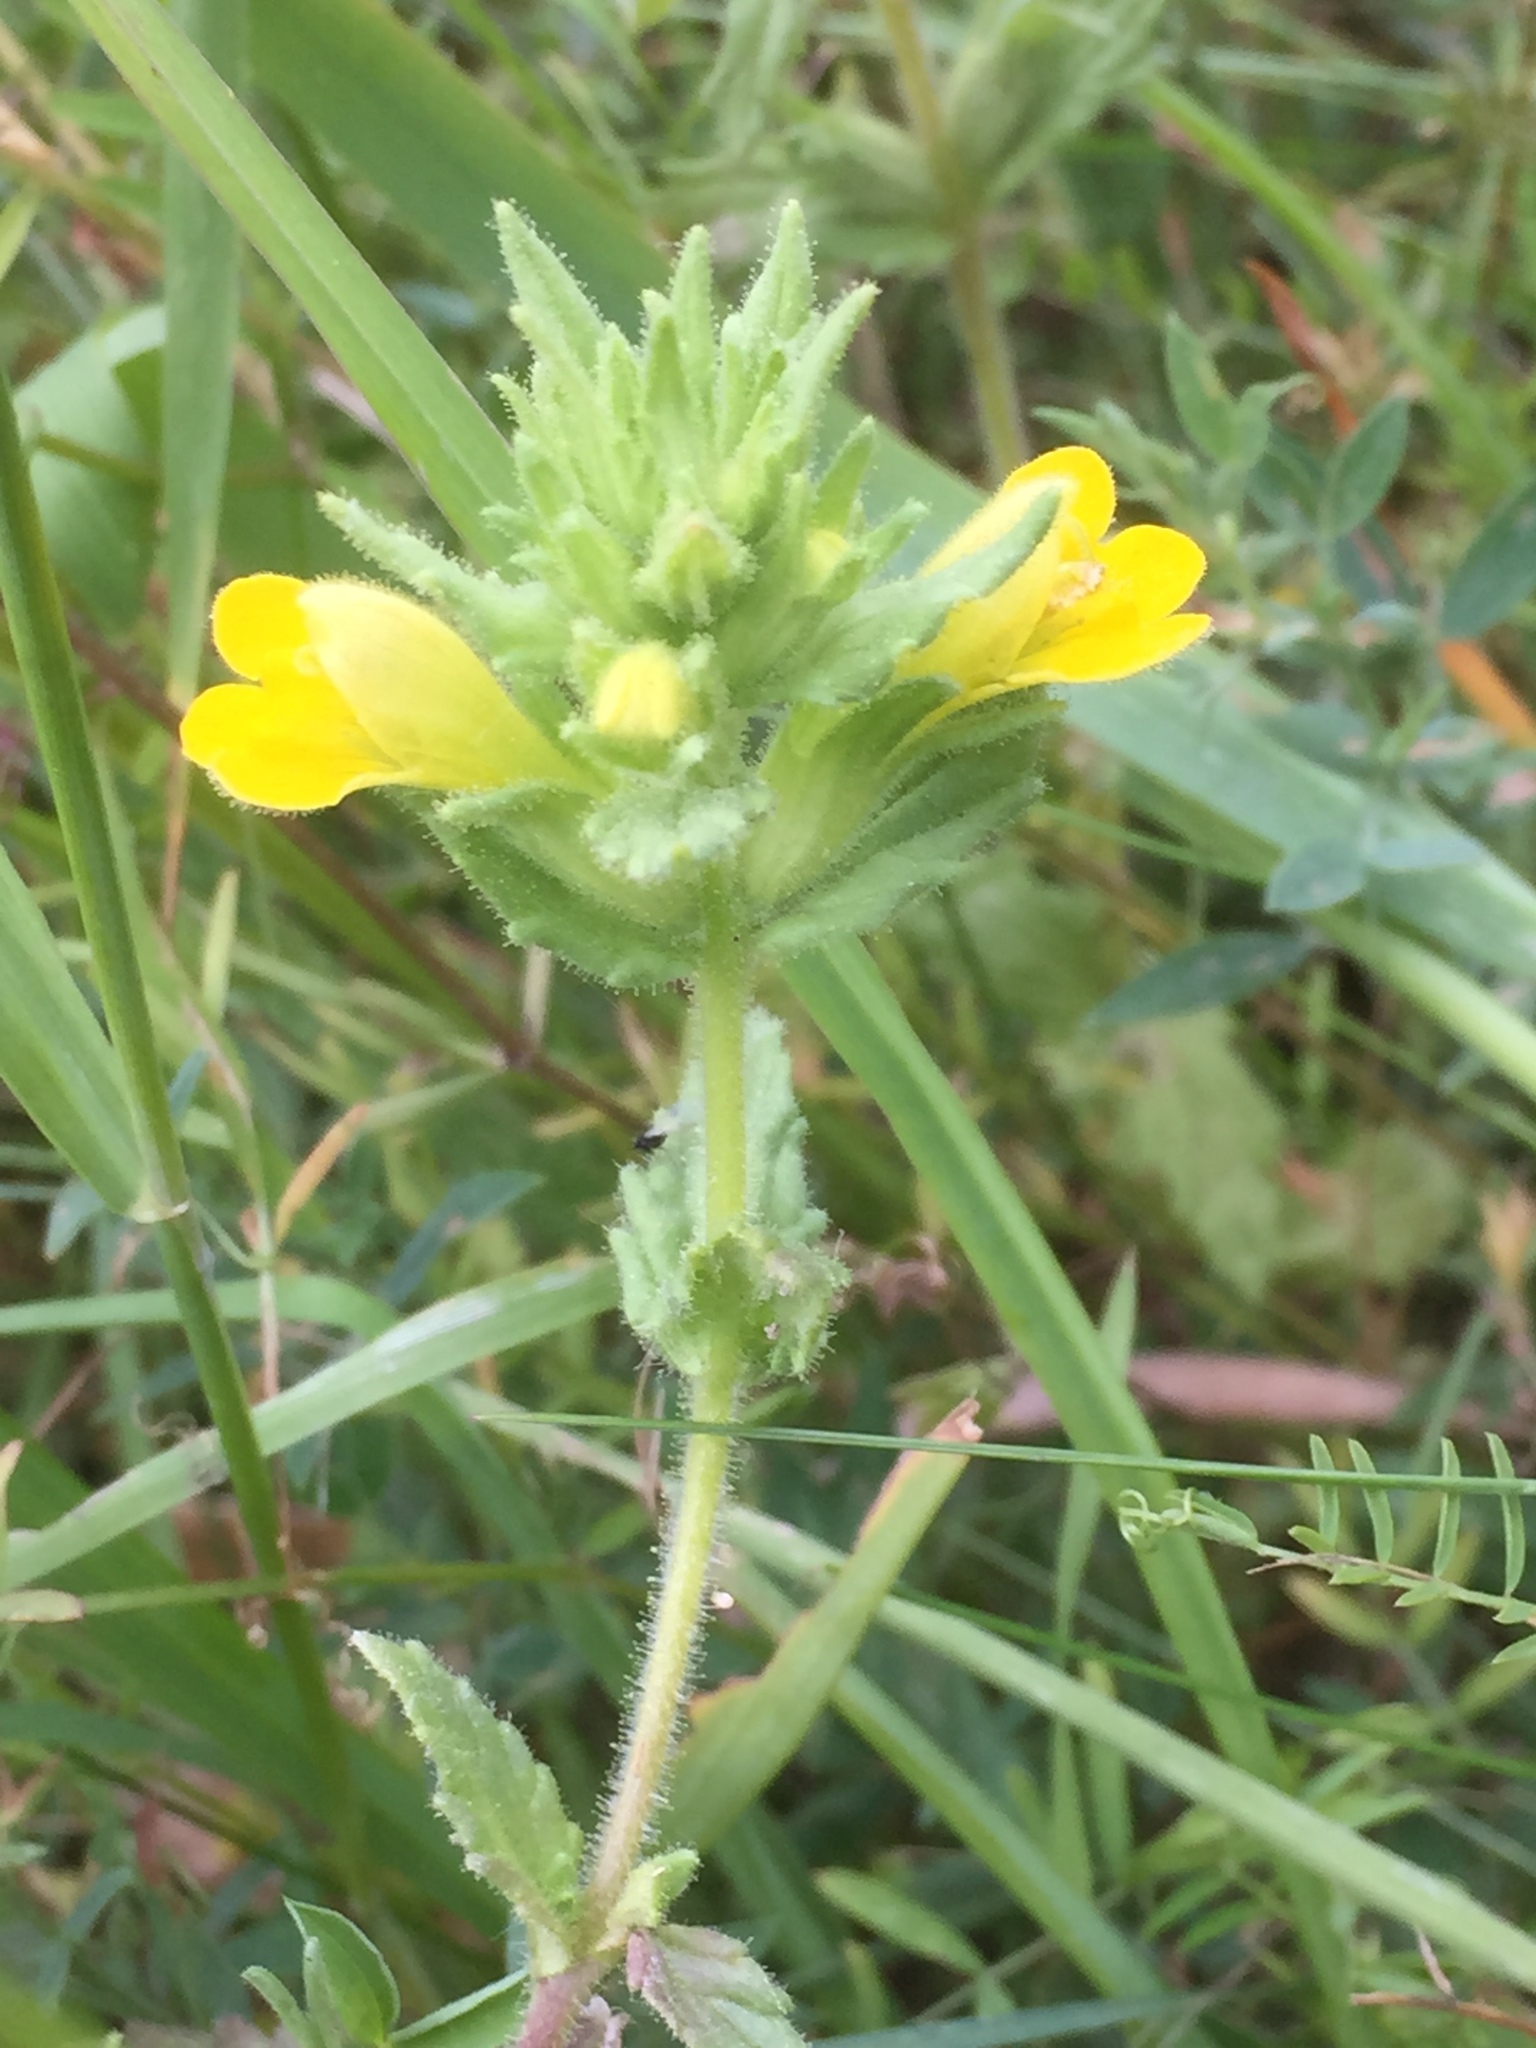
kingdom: Plantae
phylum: Tracheophyta
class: Magnoliopsida
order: Lamiales
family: Orobanchaceae
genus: Bellardia
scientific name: Bellardia viscosa
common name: Sticky parentucellia
